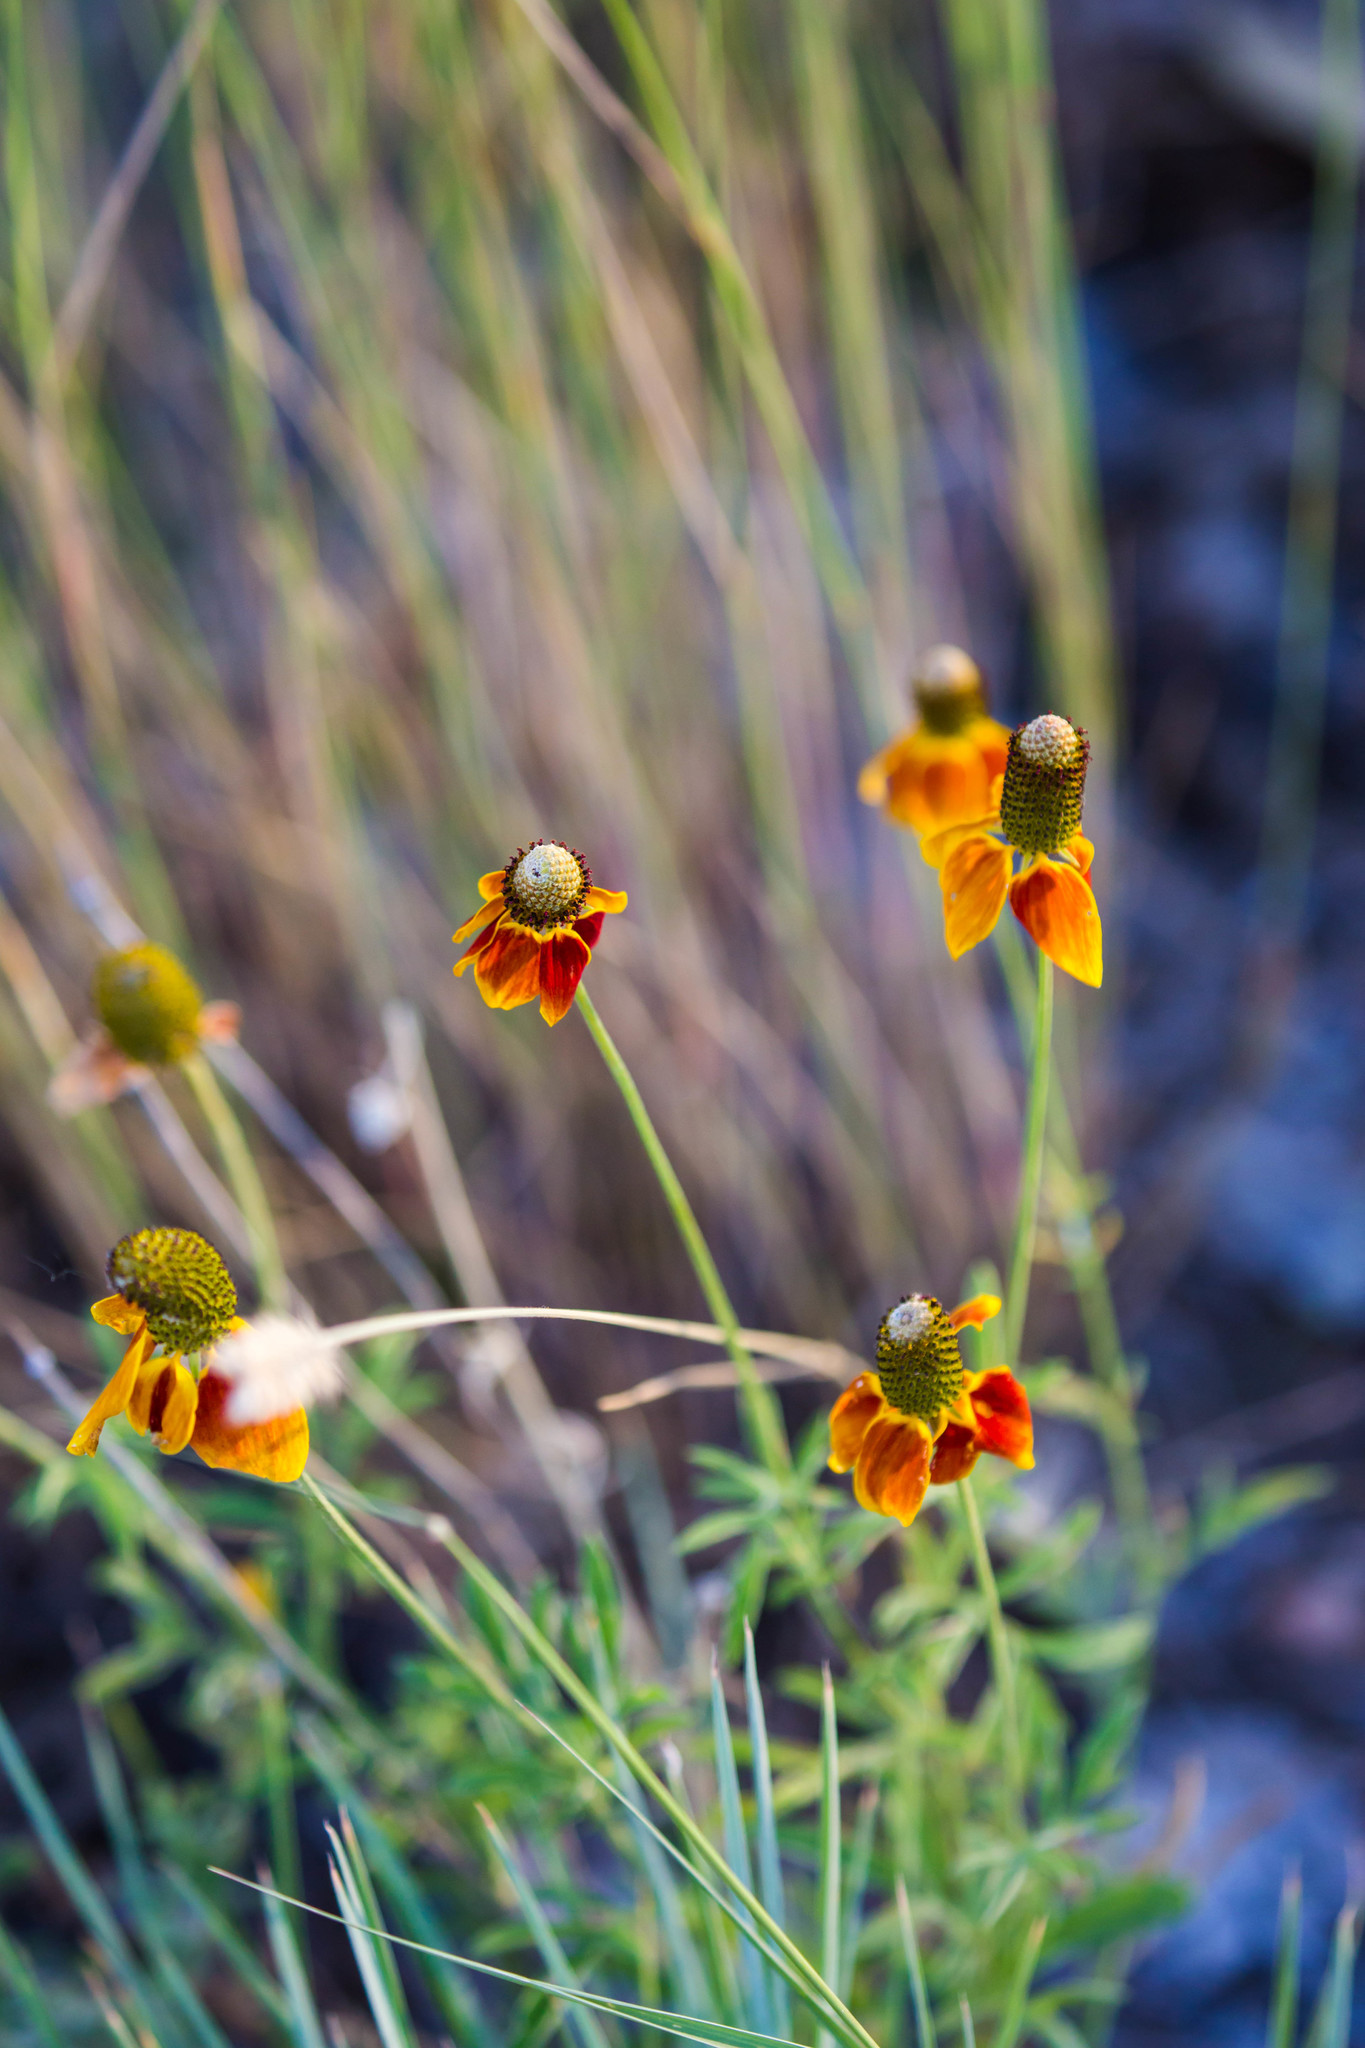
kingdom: Plantae
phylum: Tracheophyta
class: Magnoliopsida
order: Asterales
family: Asteraceae
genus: Ratibida
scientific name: Ratibida columnifera
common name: Prairie coneflower
